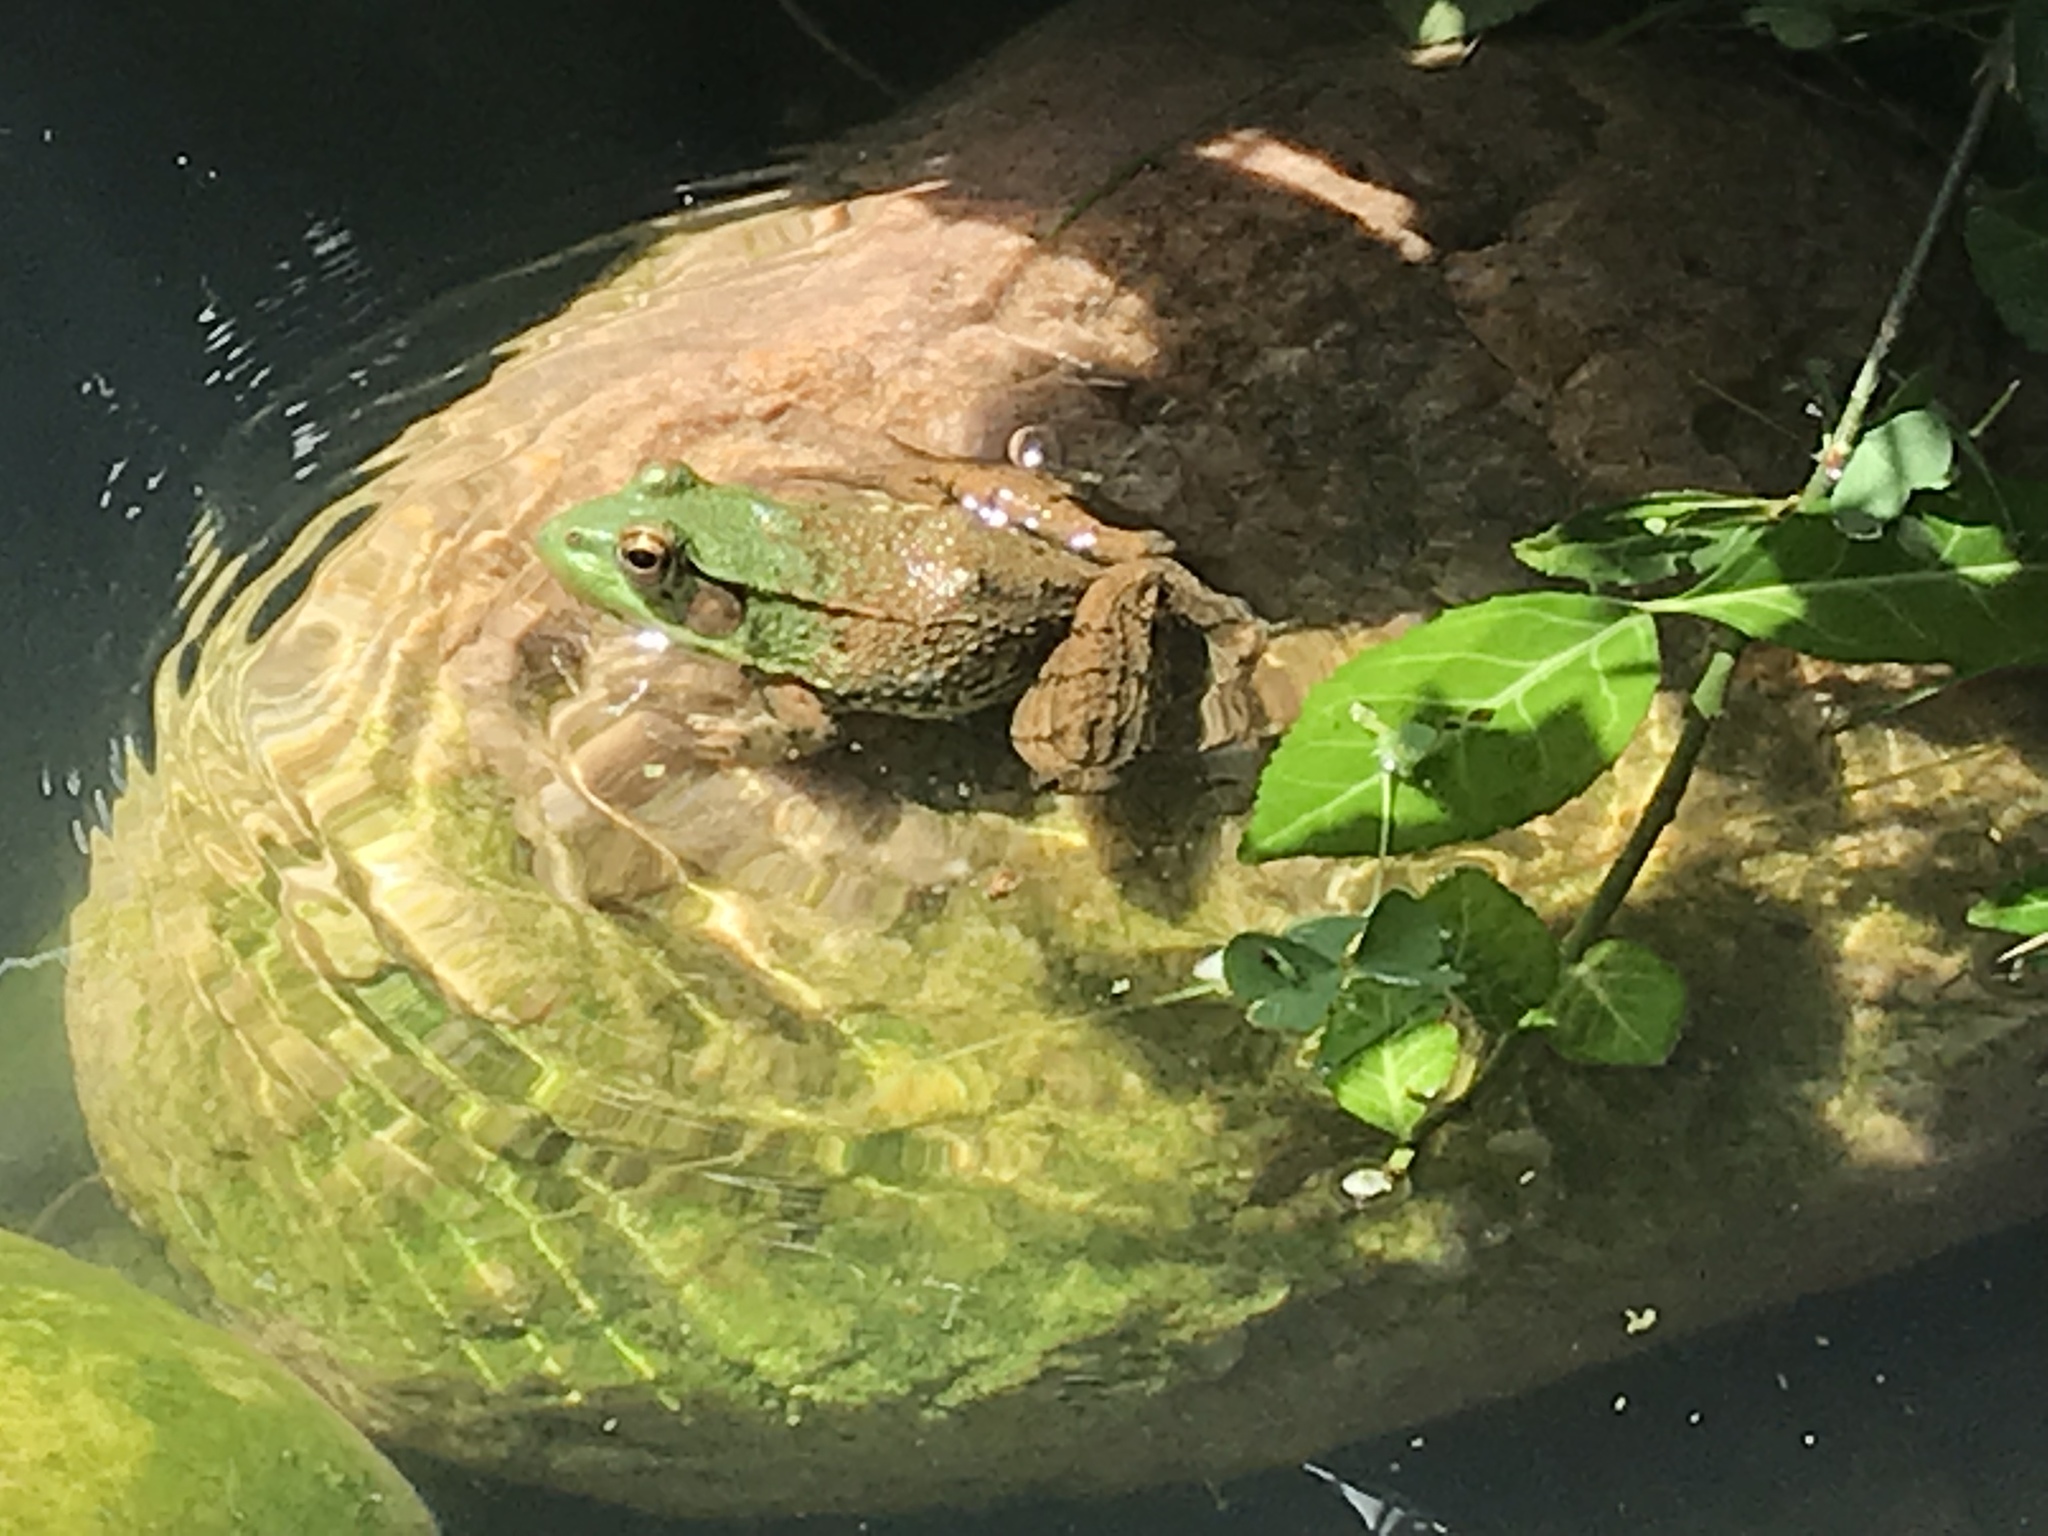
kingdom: Animalia
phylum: Chordata
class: Amphibia
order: Anura
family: Ranidae
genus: Lithobates
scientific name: Lithobates clamitans
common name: Green frog
